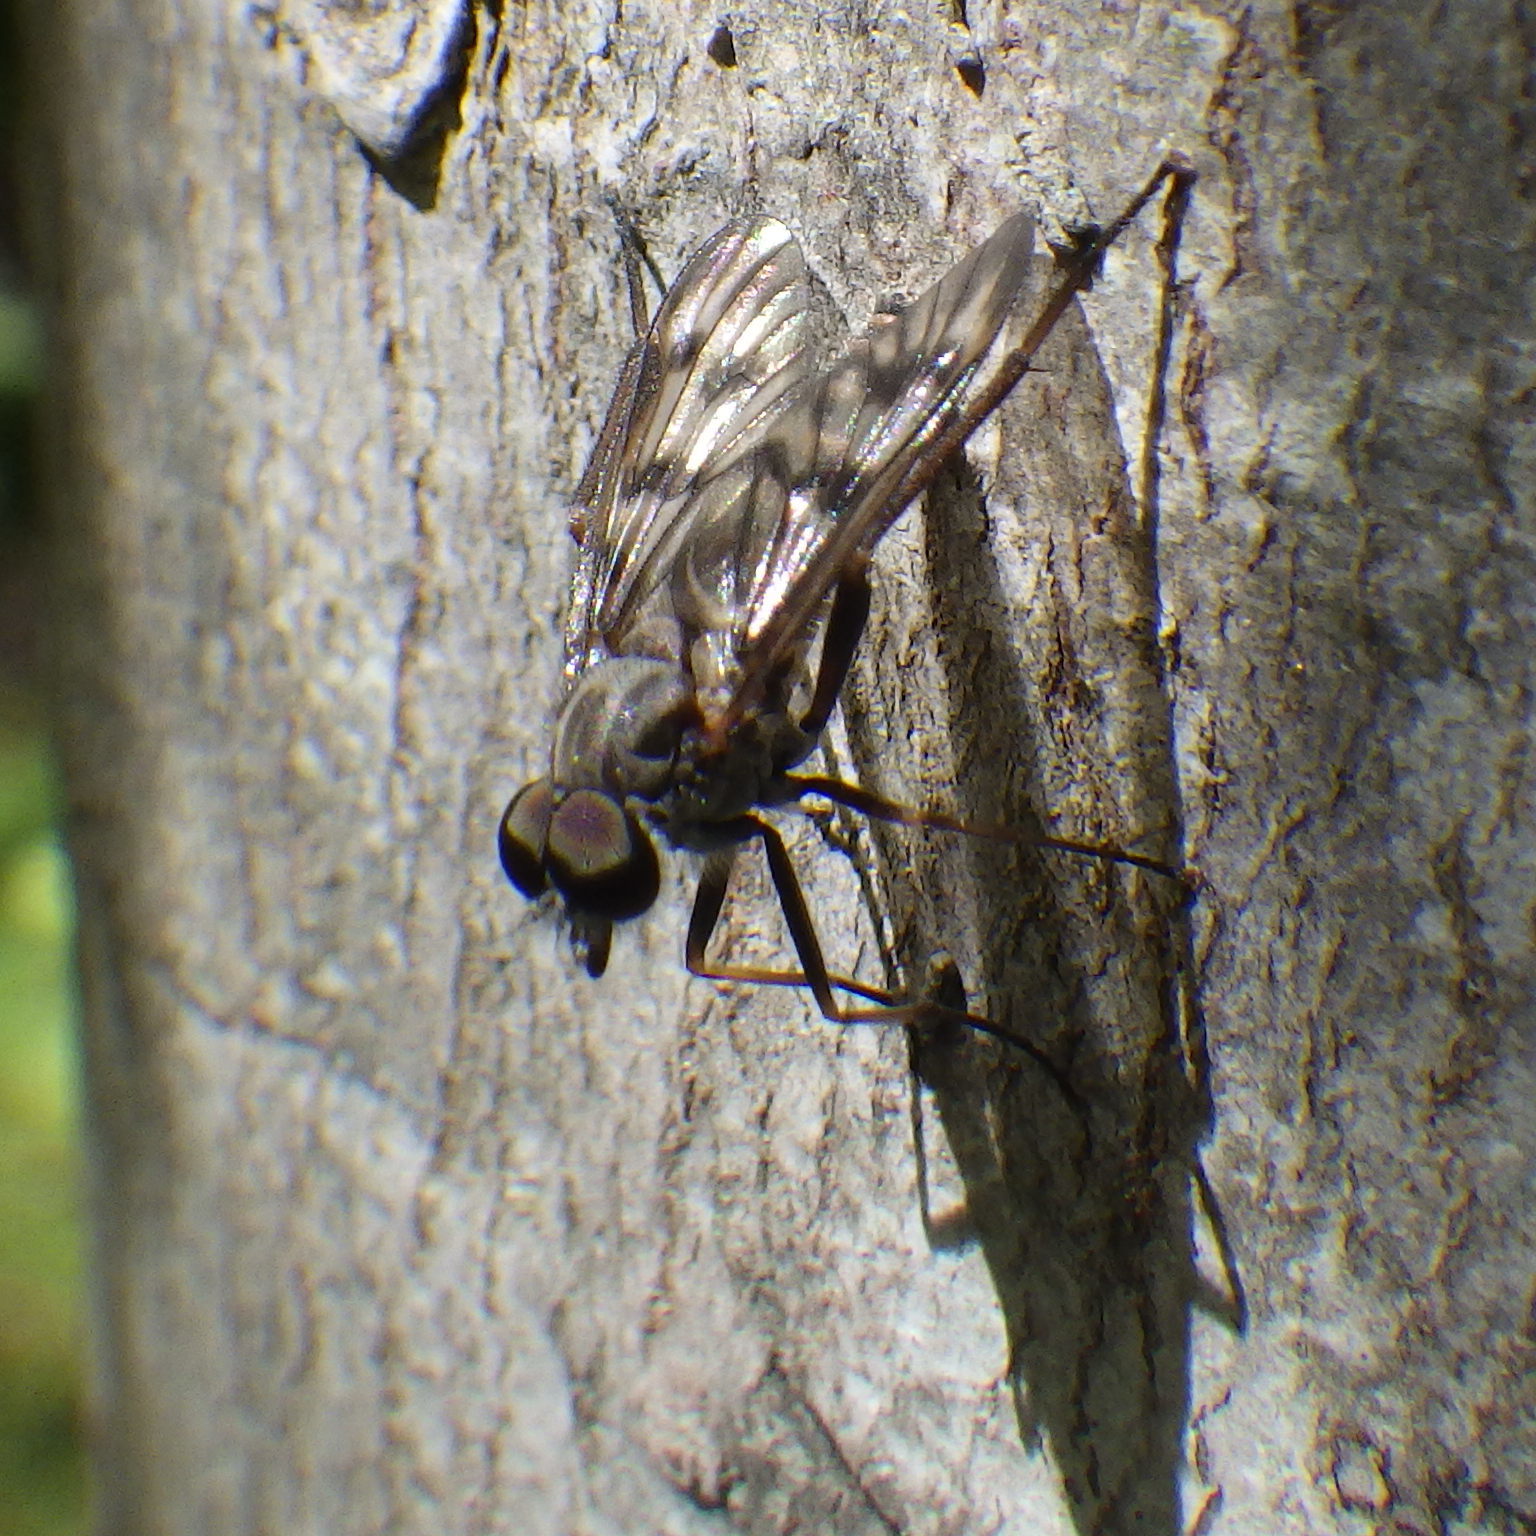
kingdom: Animalia
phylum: Arthropoda
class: Insecta
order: Diptera
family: Rhagionidae
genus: Rhagio
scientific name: Rhagio mystaceus
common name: Common snipe fly
